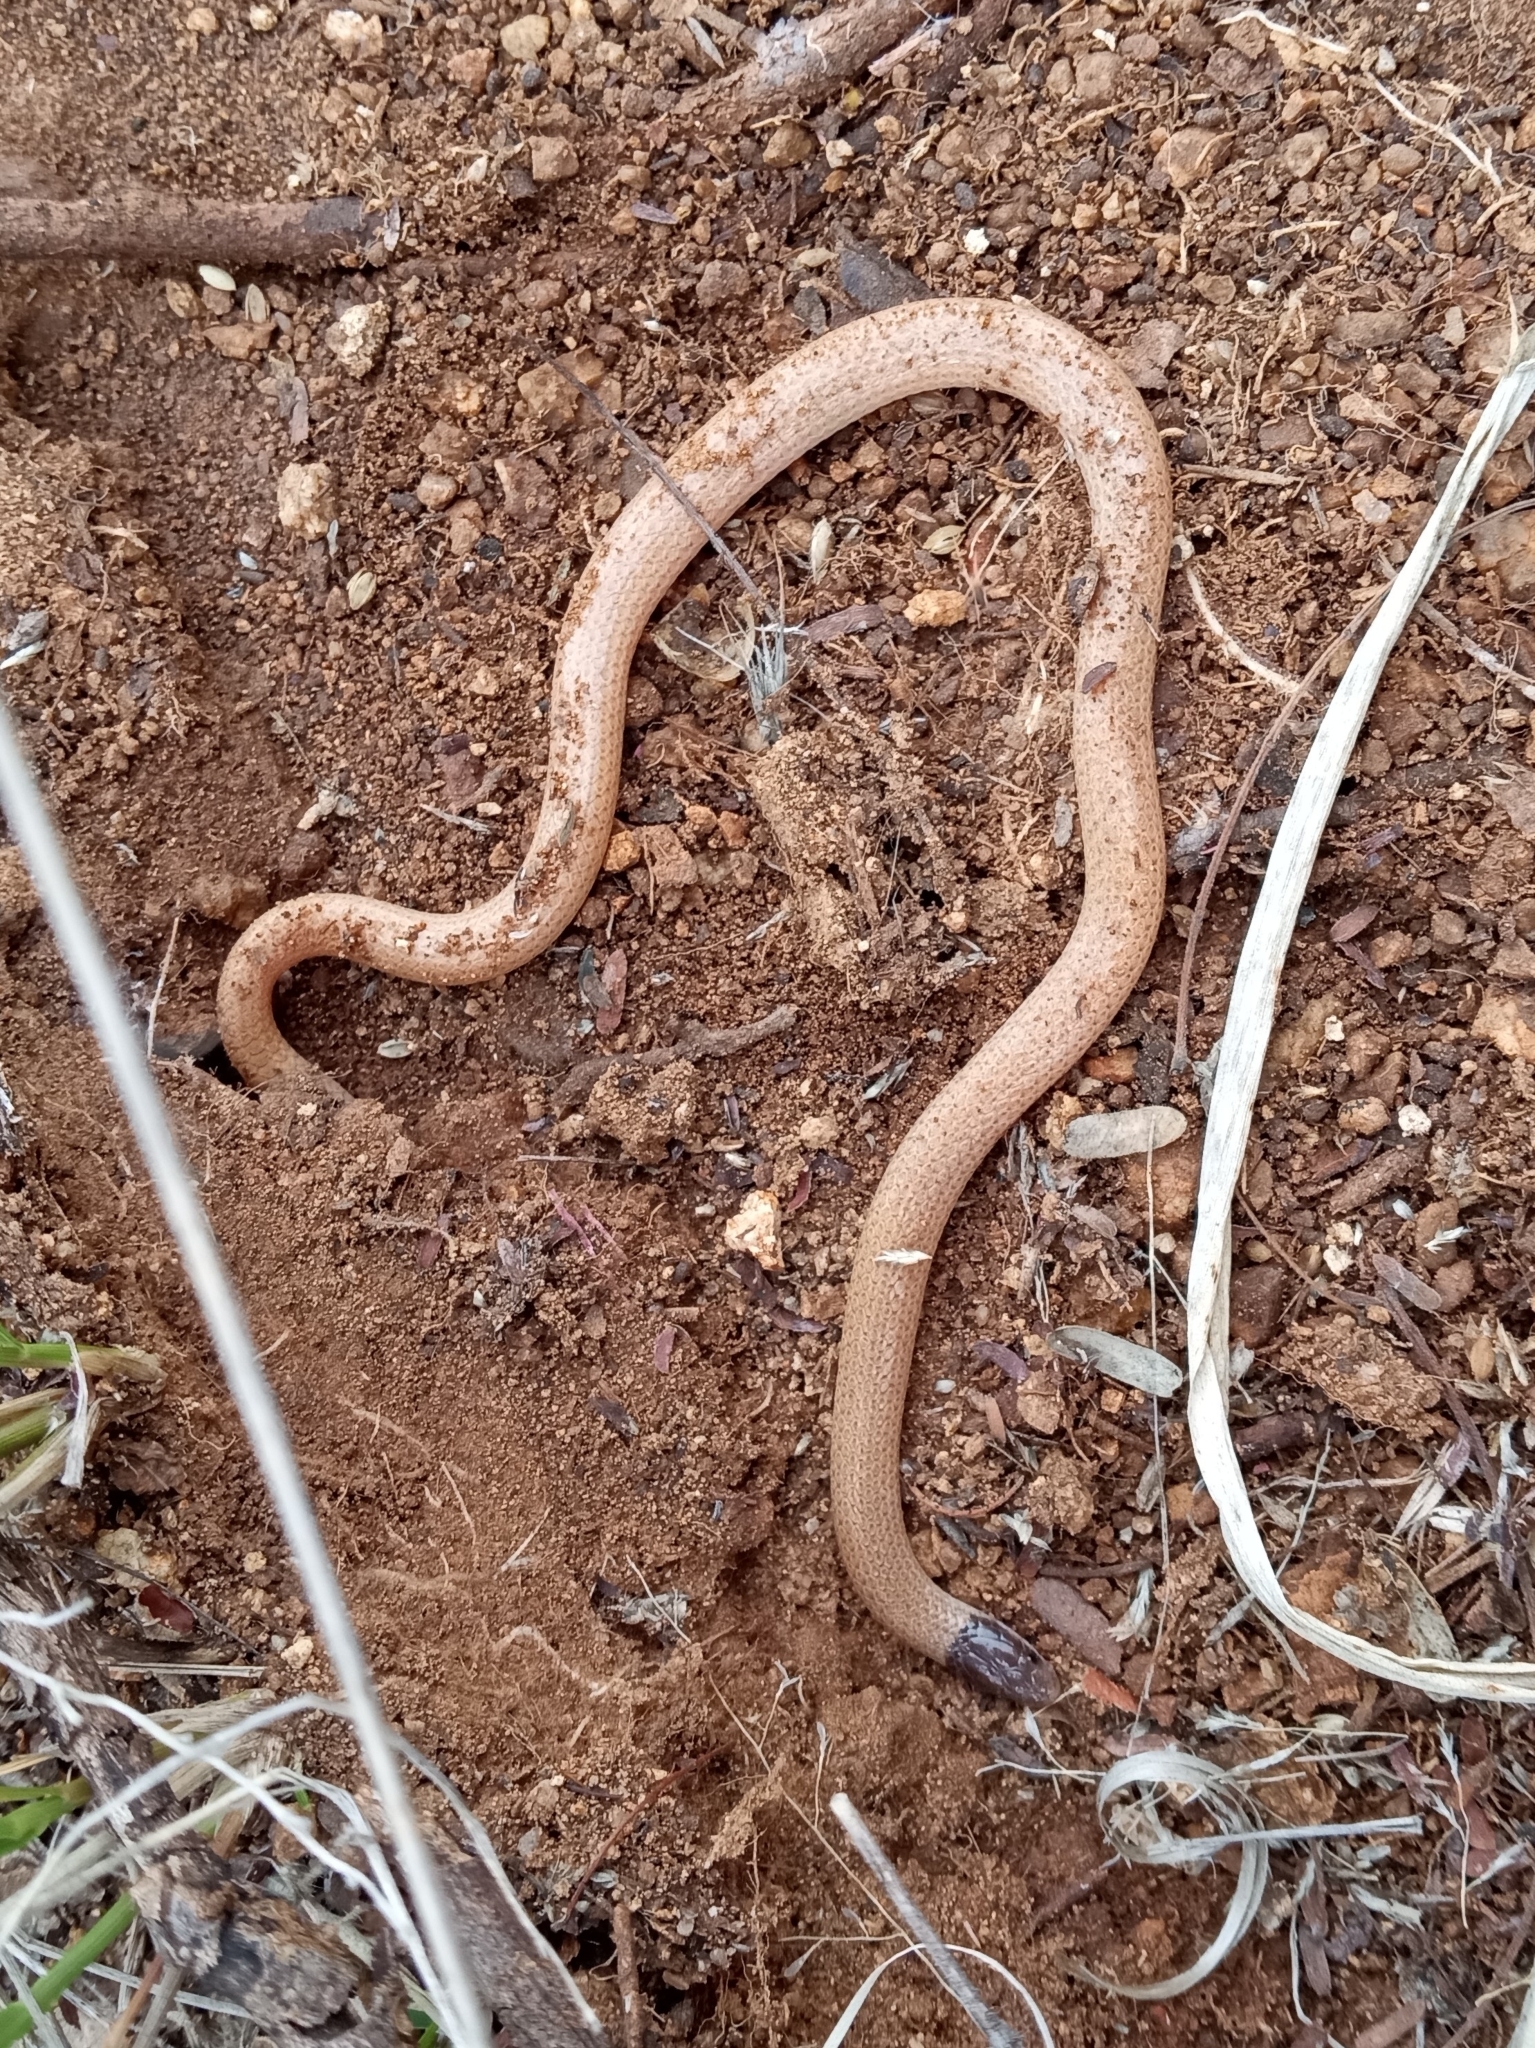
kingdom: Animalia
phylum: Chordata
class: Squamata
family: Colubridae
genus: Tantilla
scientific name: Tantilla hobartsmithi
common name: Southwestern blackhead snake
